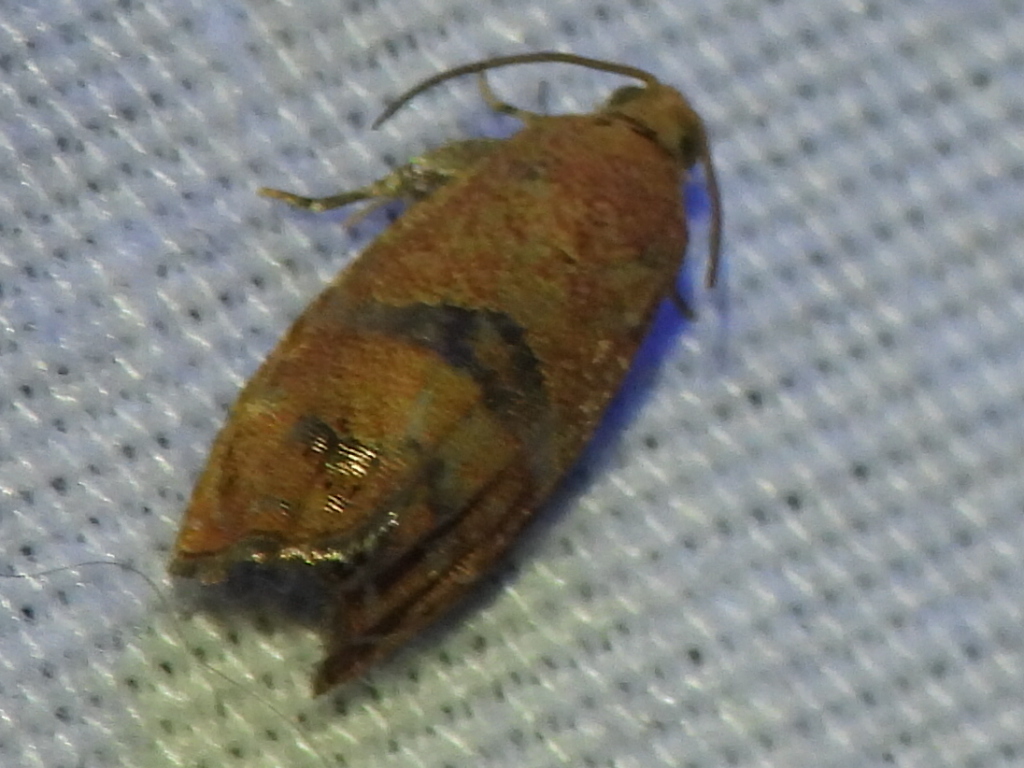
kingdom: Animalia
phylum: Arthropoda
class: Insecta
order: Lepidoptera
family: Tortricidae
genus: Cydia
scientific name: Cydia latiferreana
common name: Filbertworm moth
